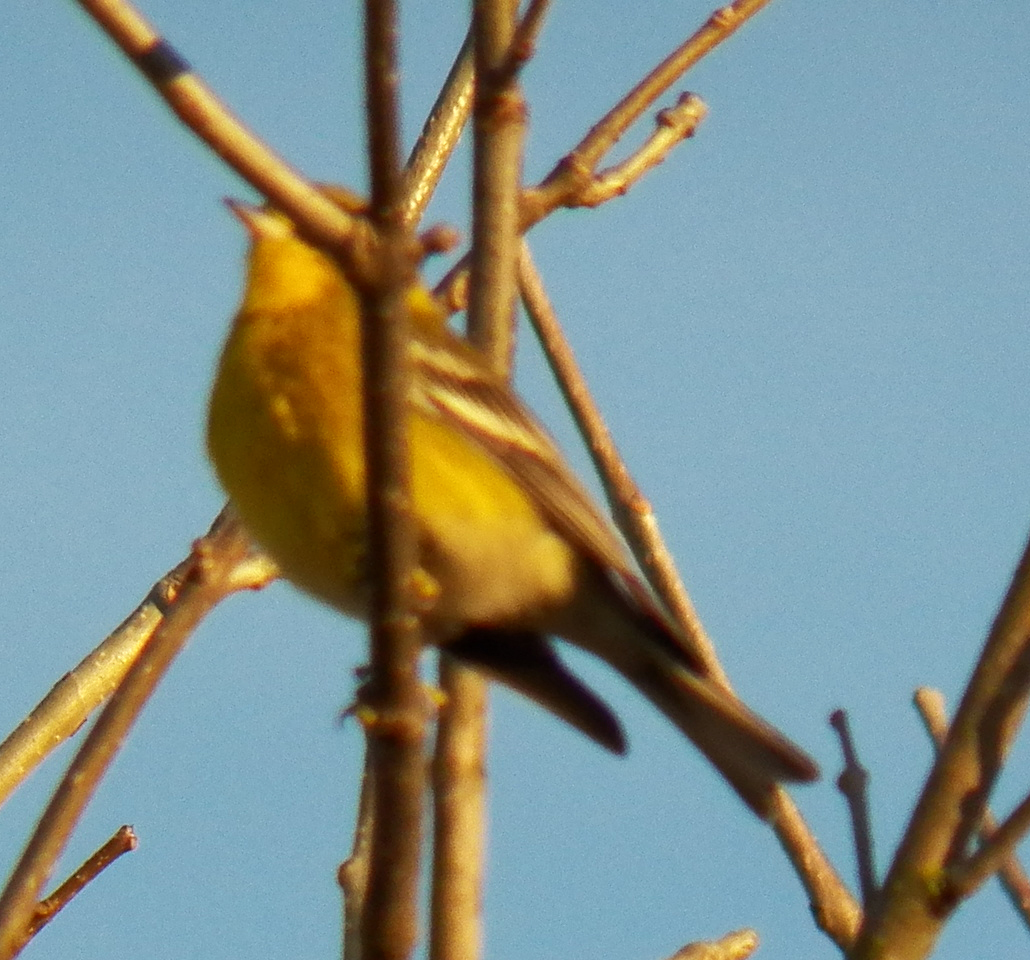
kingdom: Animalia
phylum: Chordata
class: Aves
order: Passeriformes
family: Parulidae
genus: Setophaga
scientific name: Setophaga pinus
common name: Pine warbler
